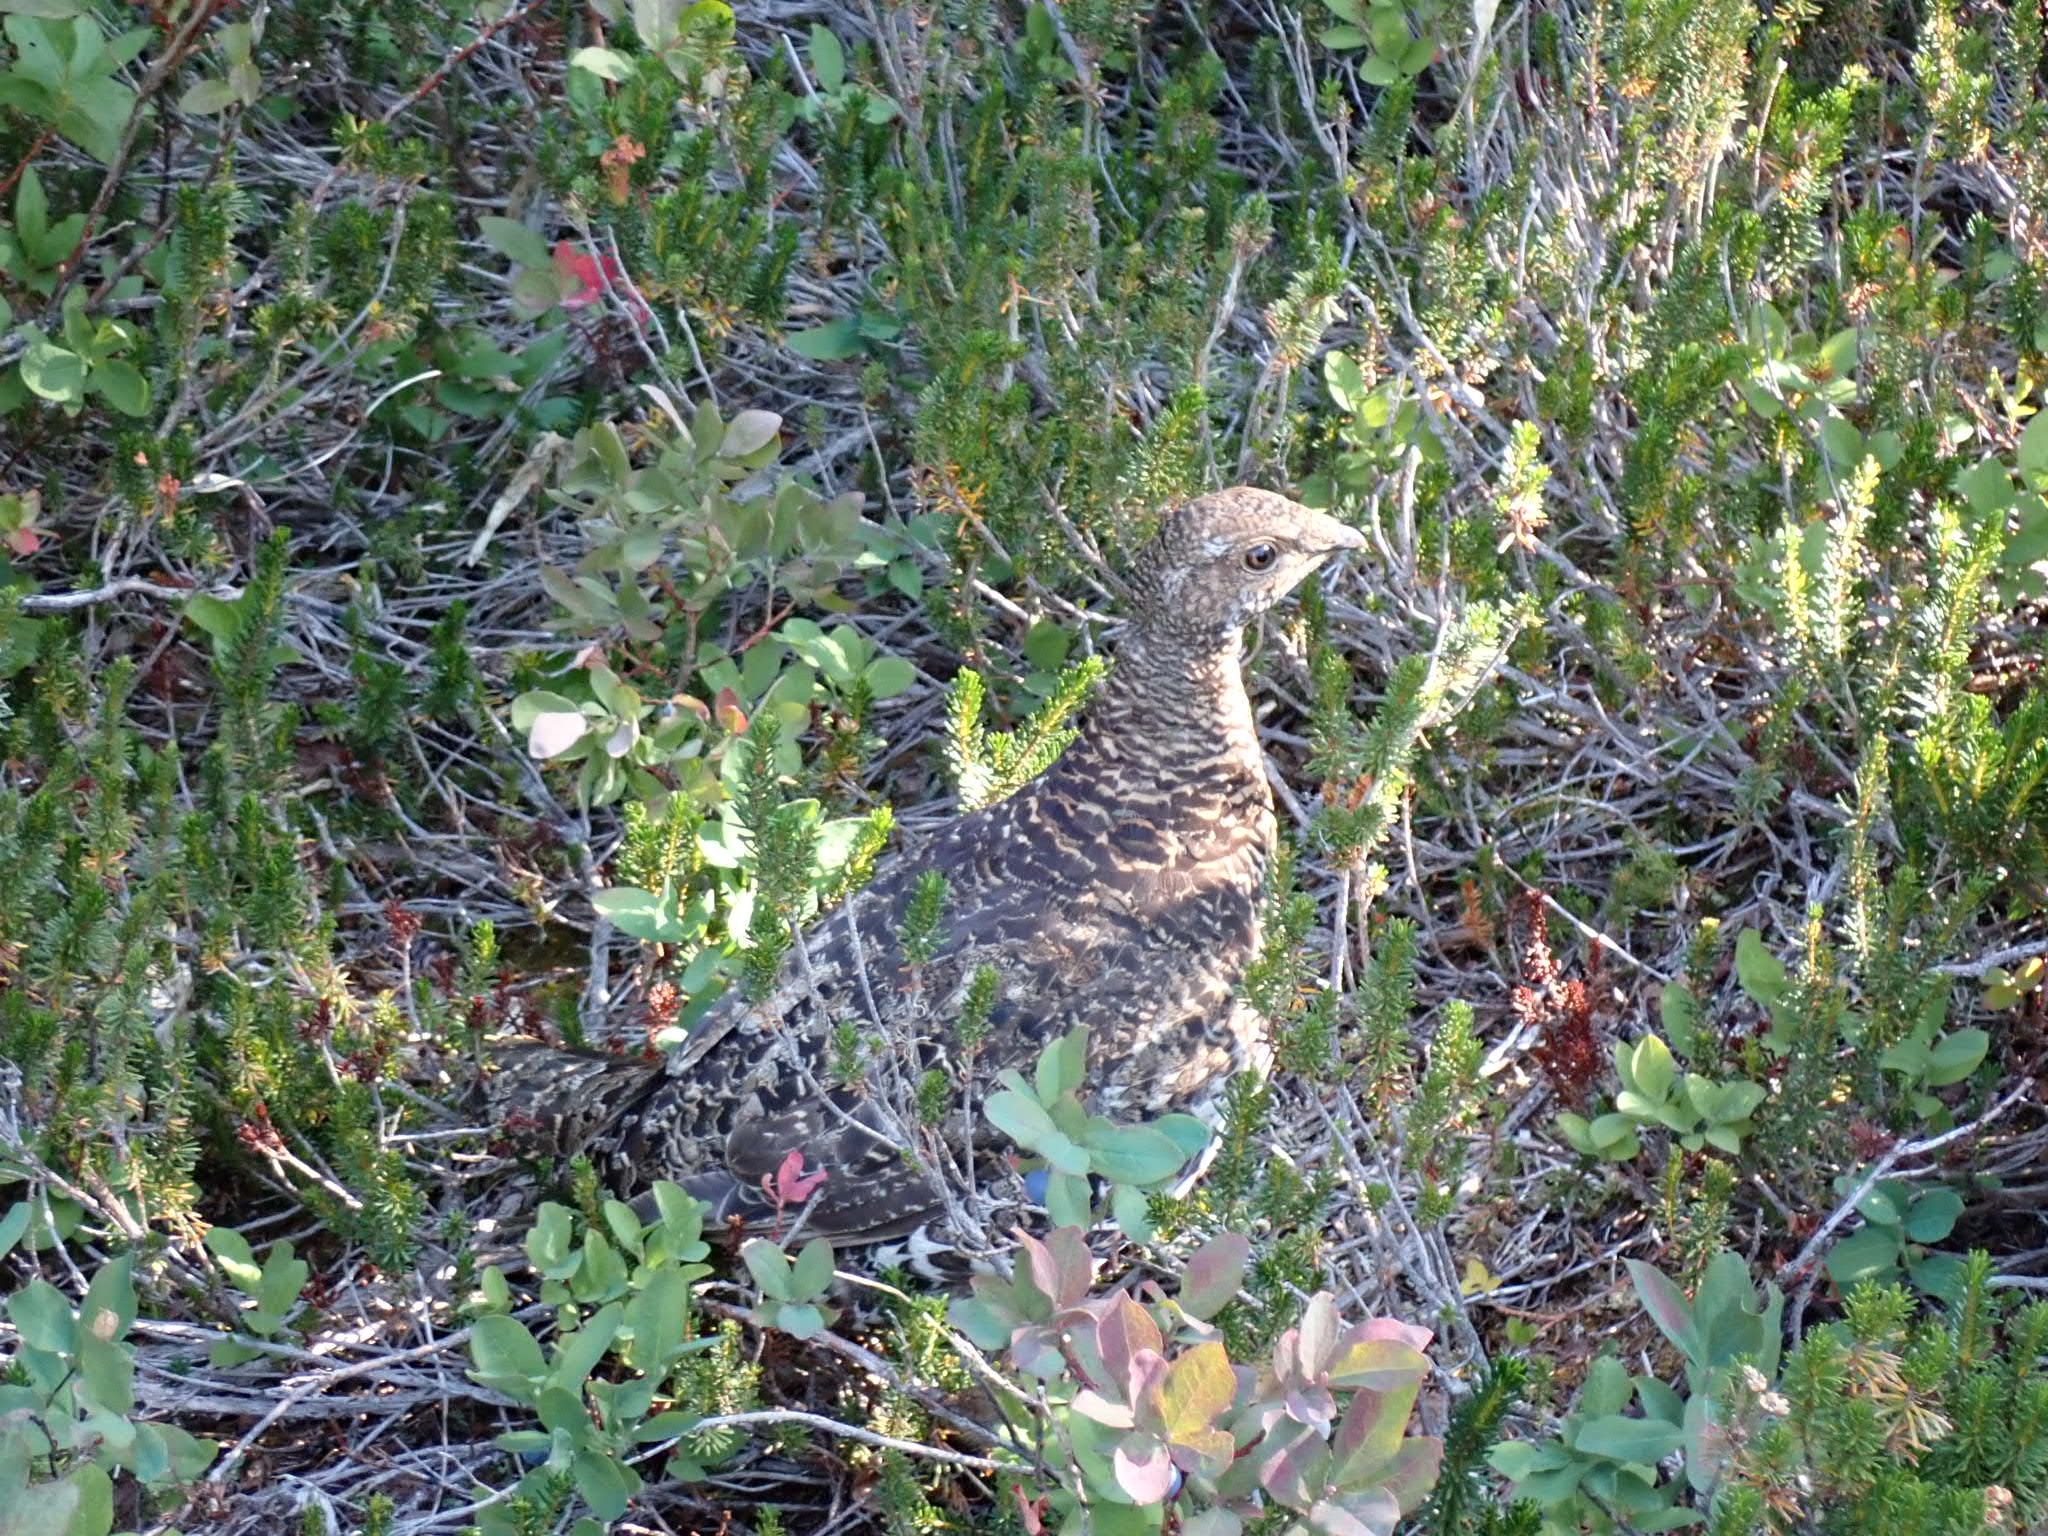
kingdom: Animalia
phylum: Chordata
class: Aves
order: Galliformes
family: Phasianidae
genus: Dendragapus
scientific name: Dendragapus fuliginosus
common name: Sooty grouse
